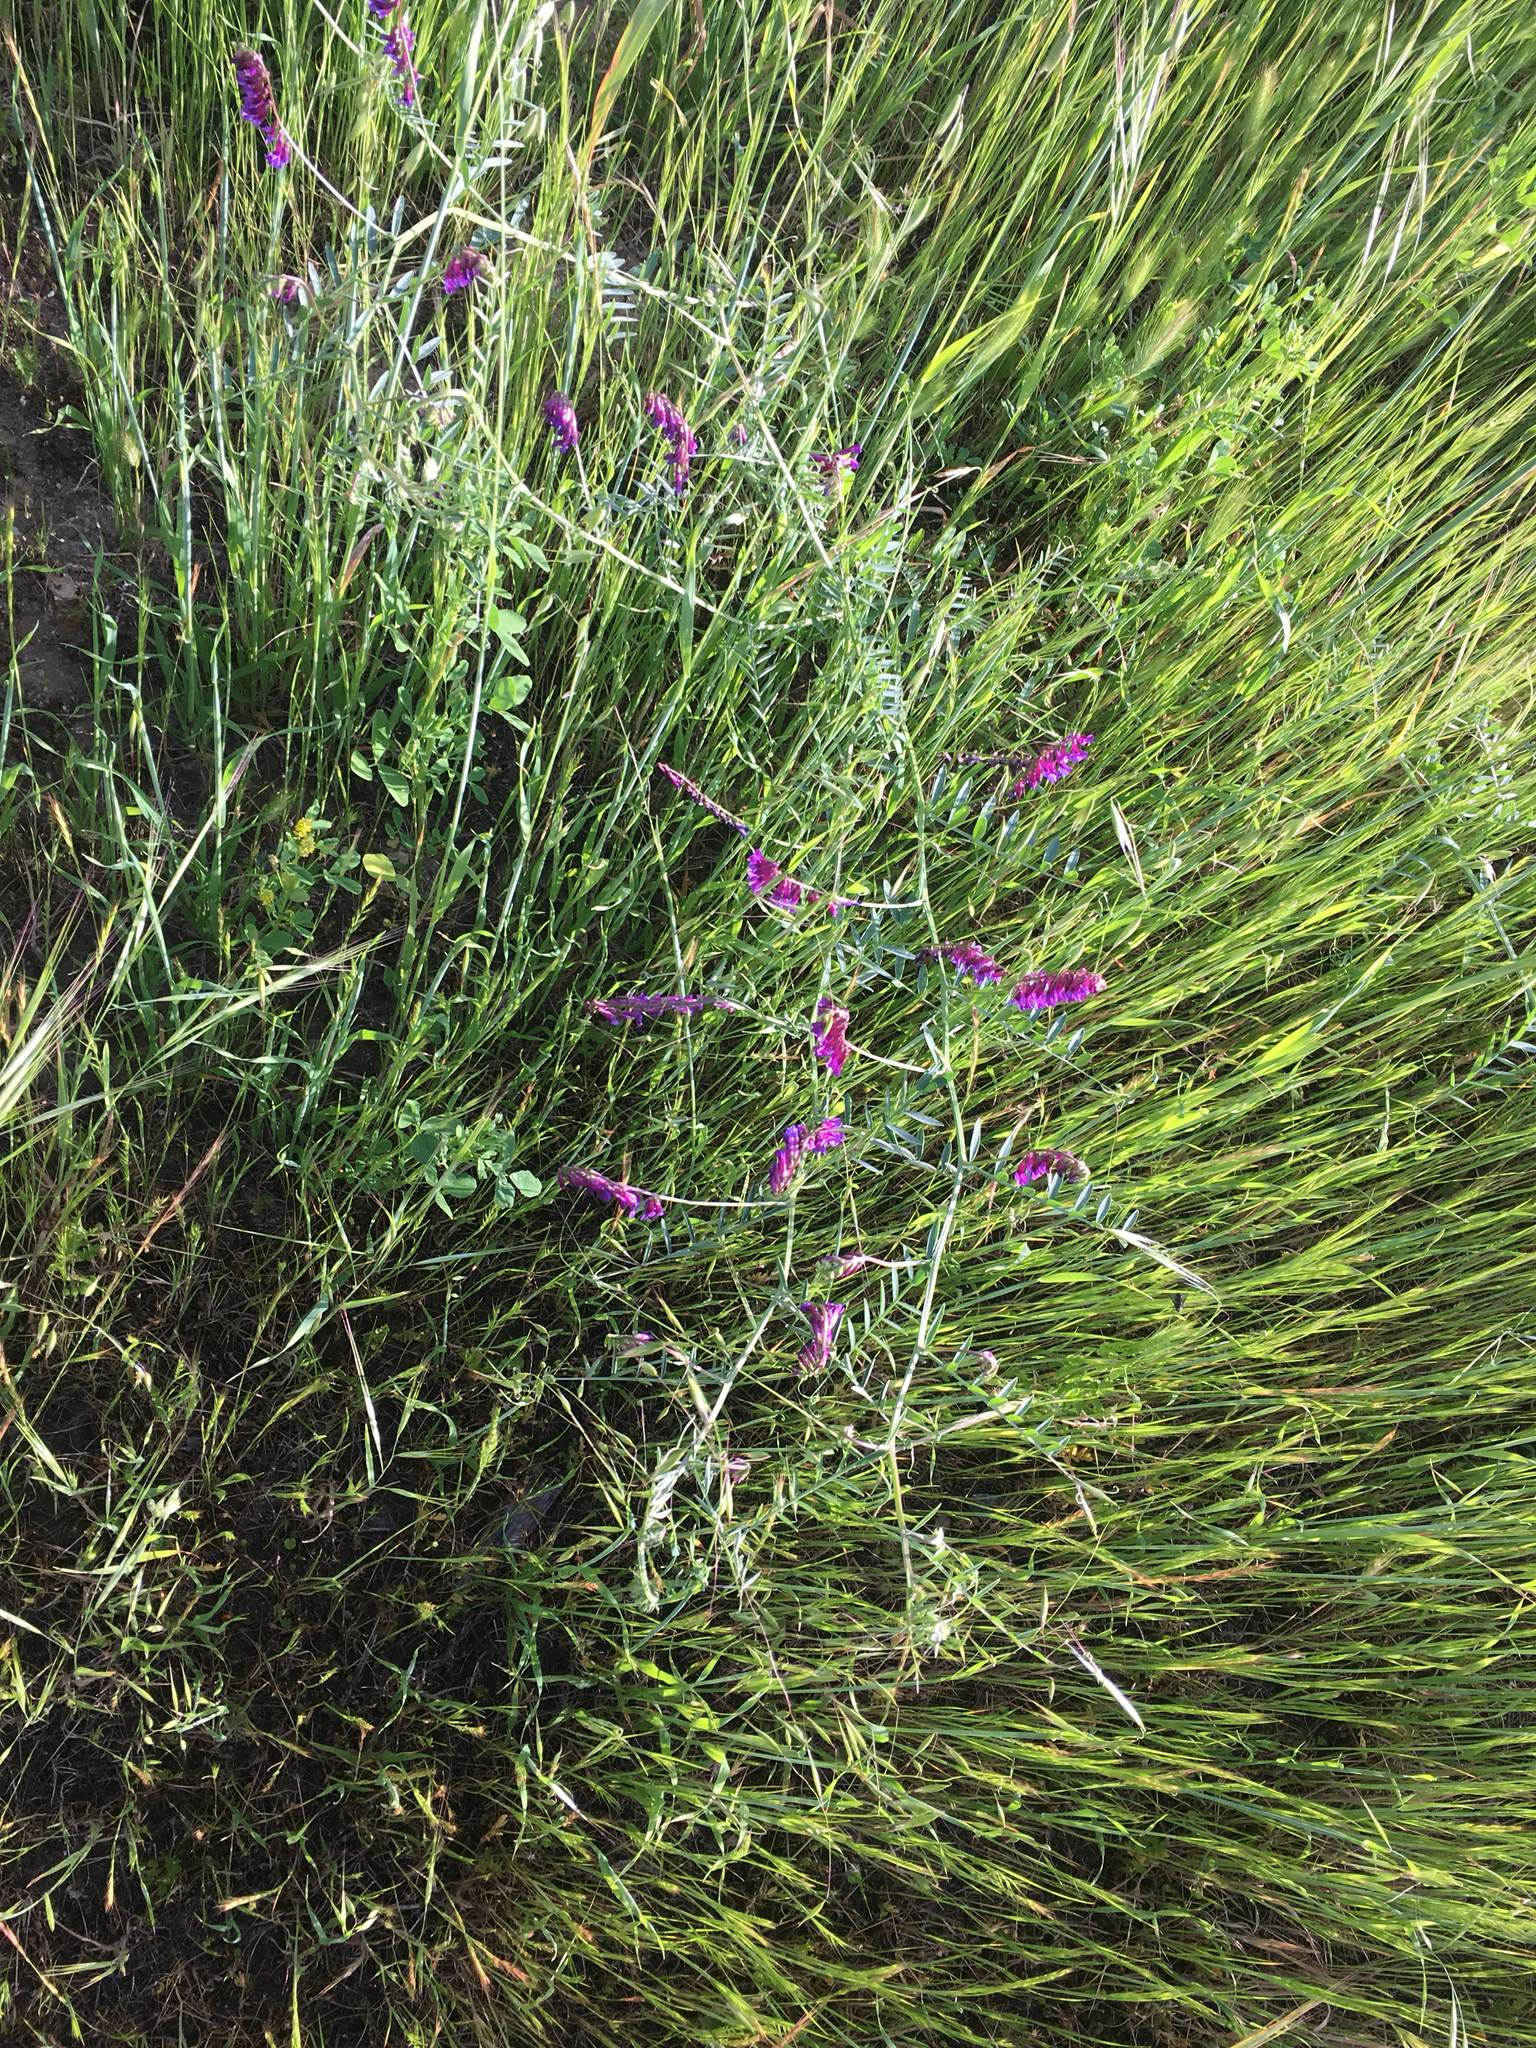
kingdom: Plantae
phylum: Tracheophyta
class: Magnoliopsida
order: Fabales
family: Fabaceae
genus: Vicia
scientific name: Vicia villosa
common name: Fodder vetch
